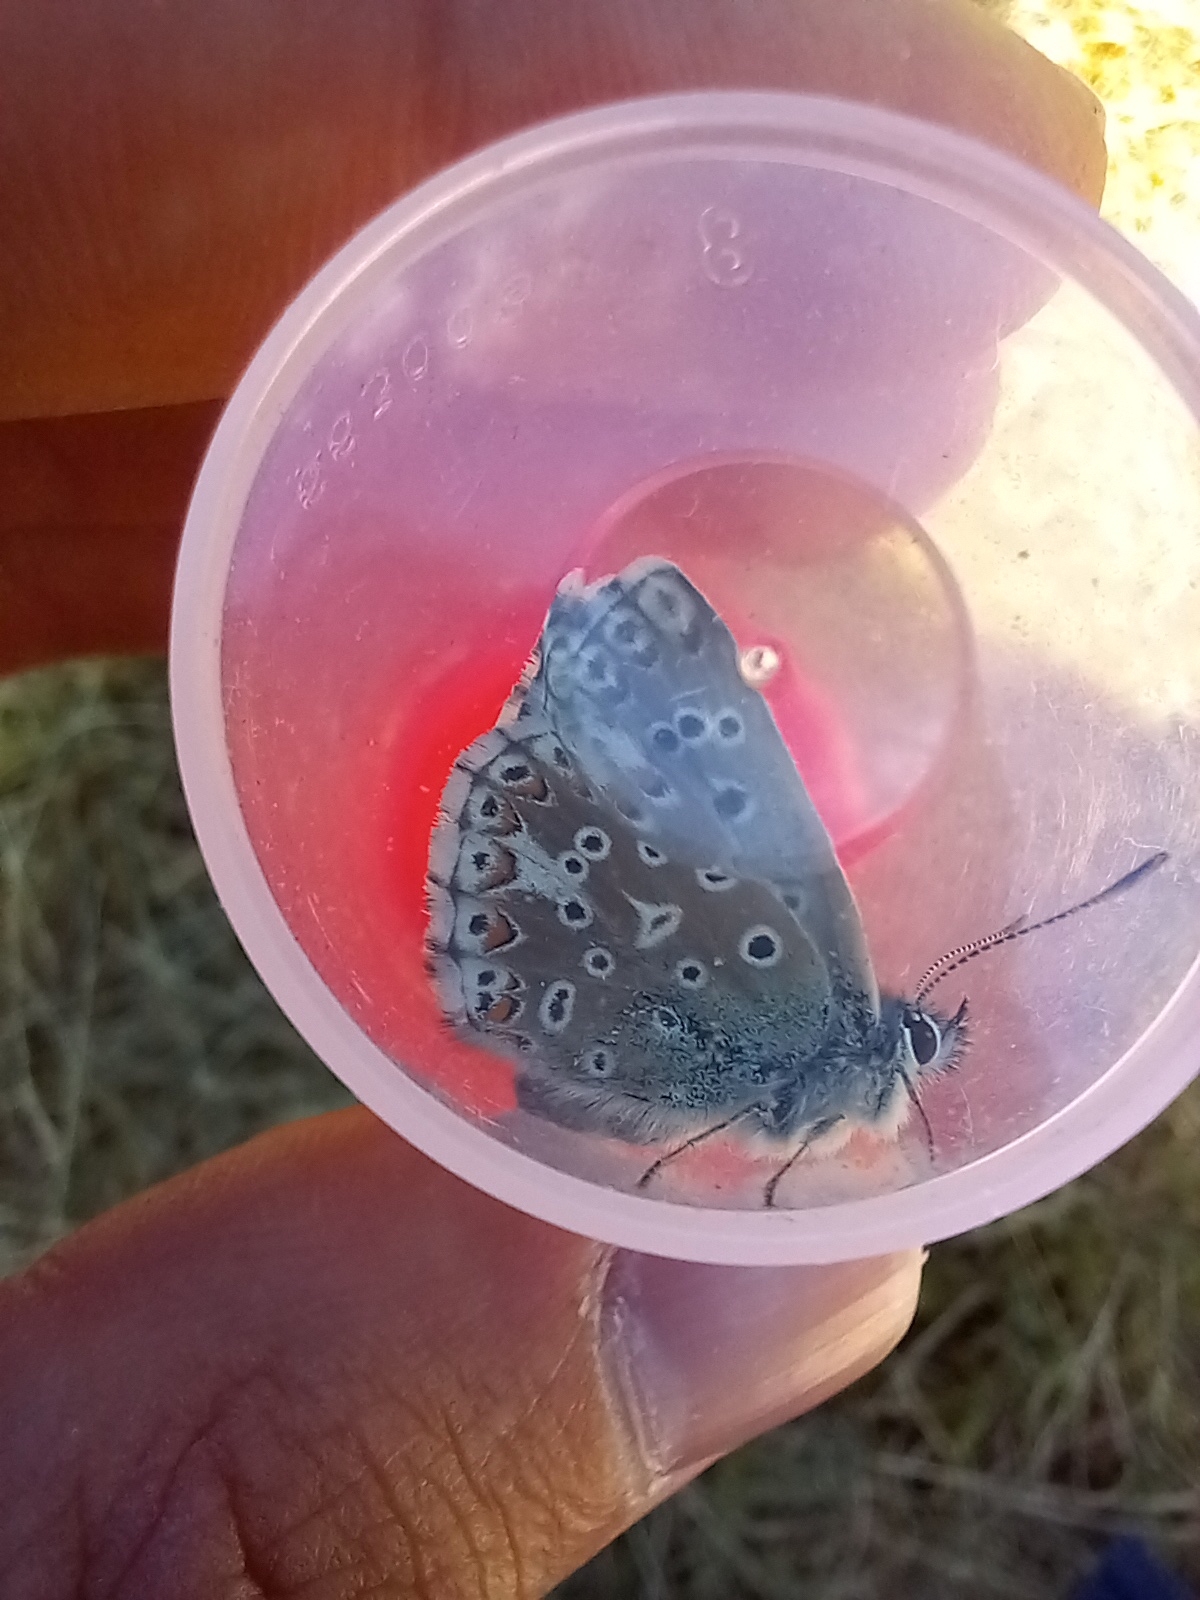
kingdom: Animalia
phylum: Arthropoda
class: Insecta
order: Lepidoptera
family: Lycaenidae
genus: Lysandra
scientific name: Lysandra bellargus
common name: Adonis blue
